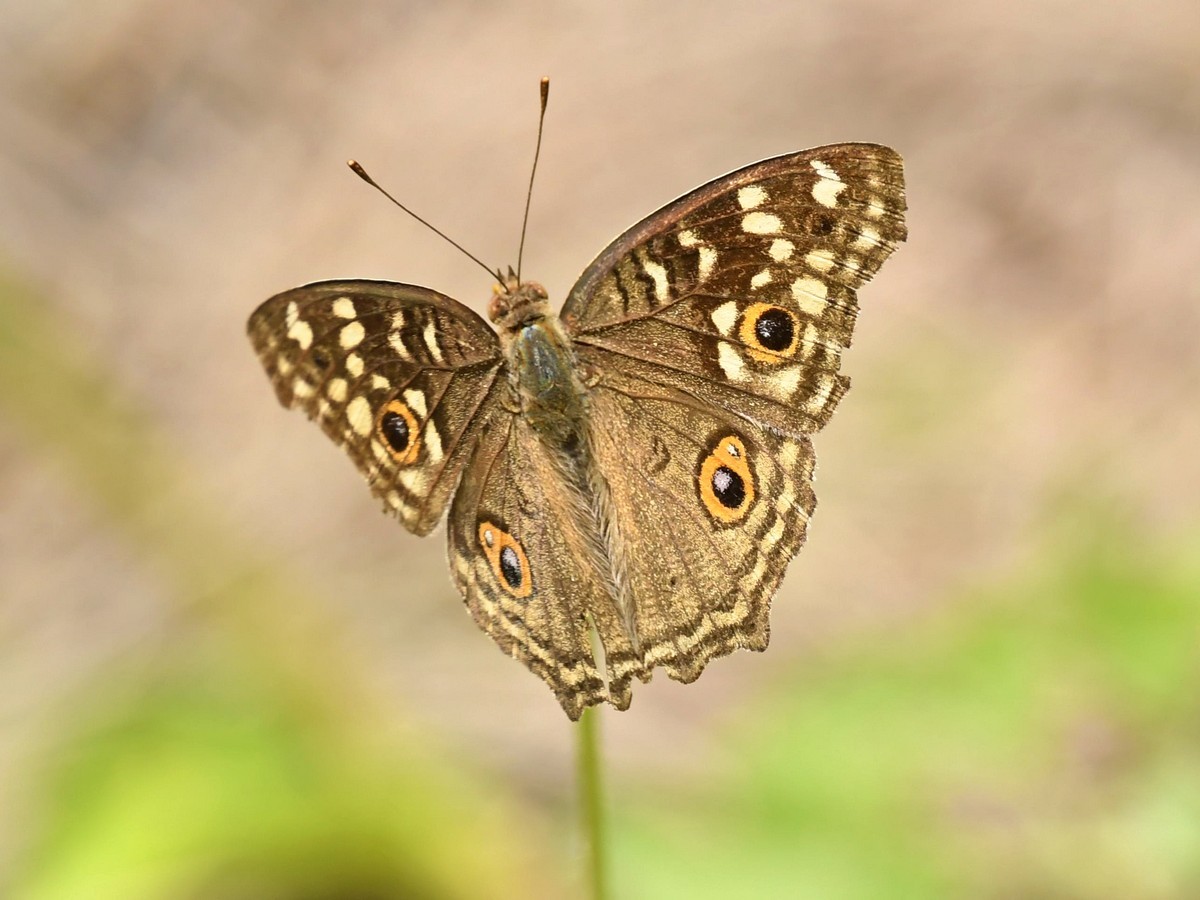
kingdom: Animalia
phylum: Arthropoda
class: Insecta
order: Lepidoptera
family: Nymphalidae
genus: Junonia
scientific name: Junonia lemonias
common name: Lemon pansy
